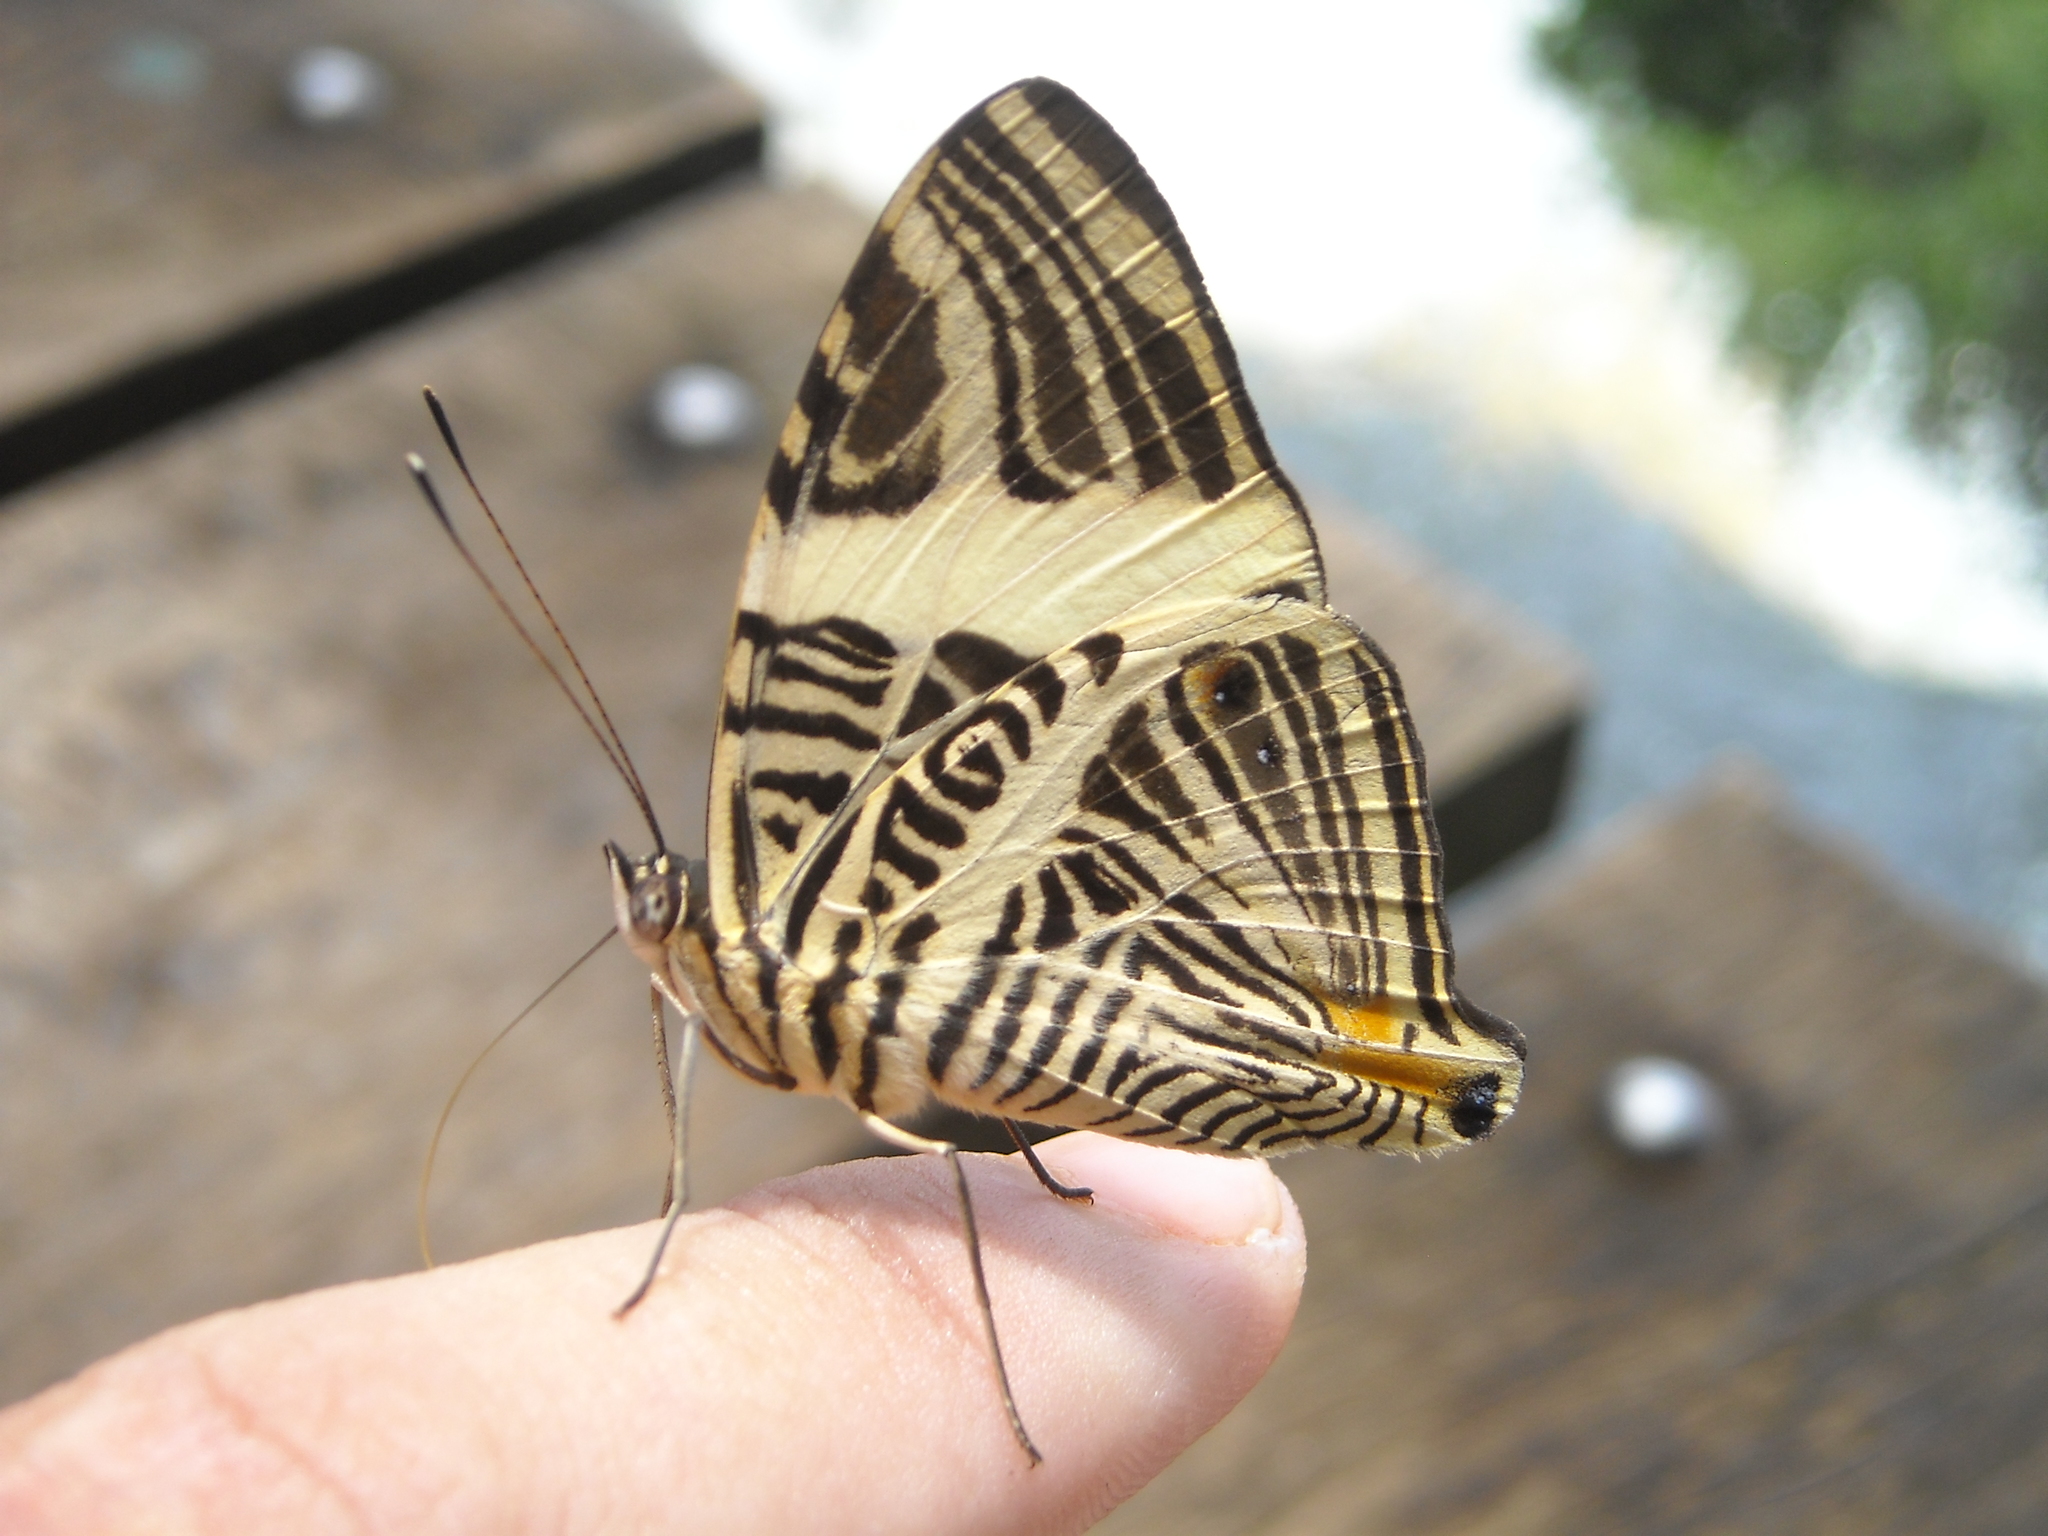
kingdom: Animalia
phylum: Arthropoda
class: Insecta
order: Lepidoptera
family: Nymphalidae
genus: Colobura
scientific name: Colobura dirce
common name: Dirce beauty
